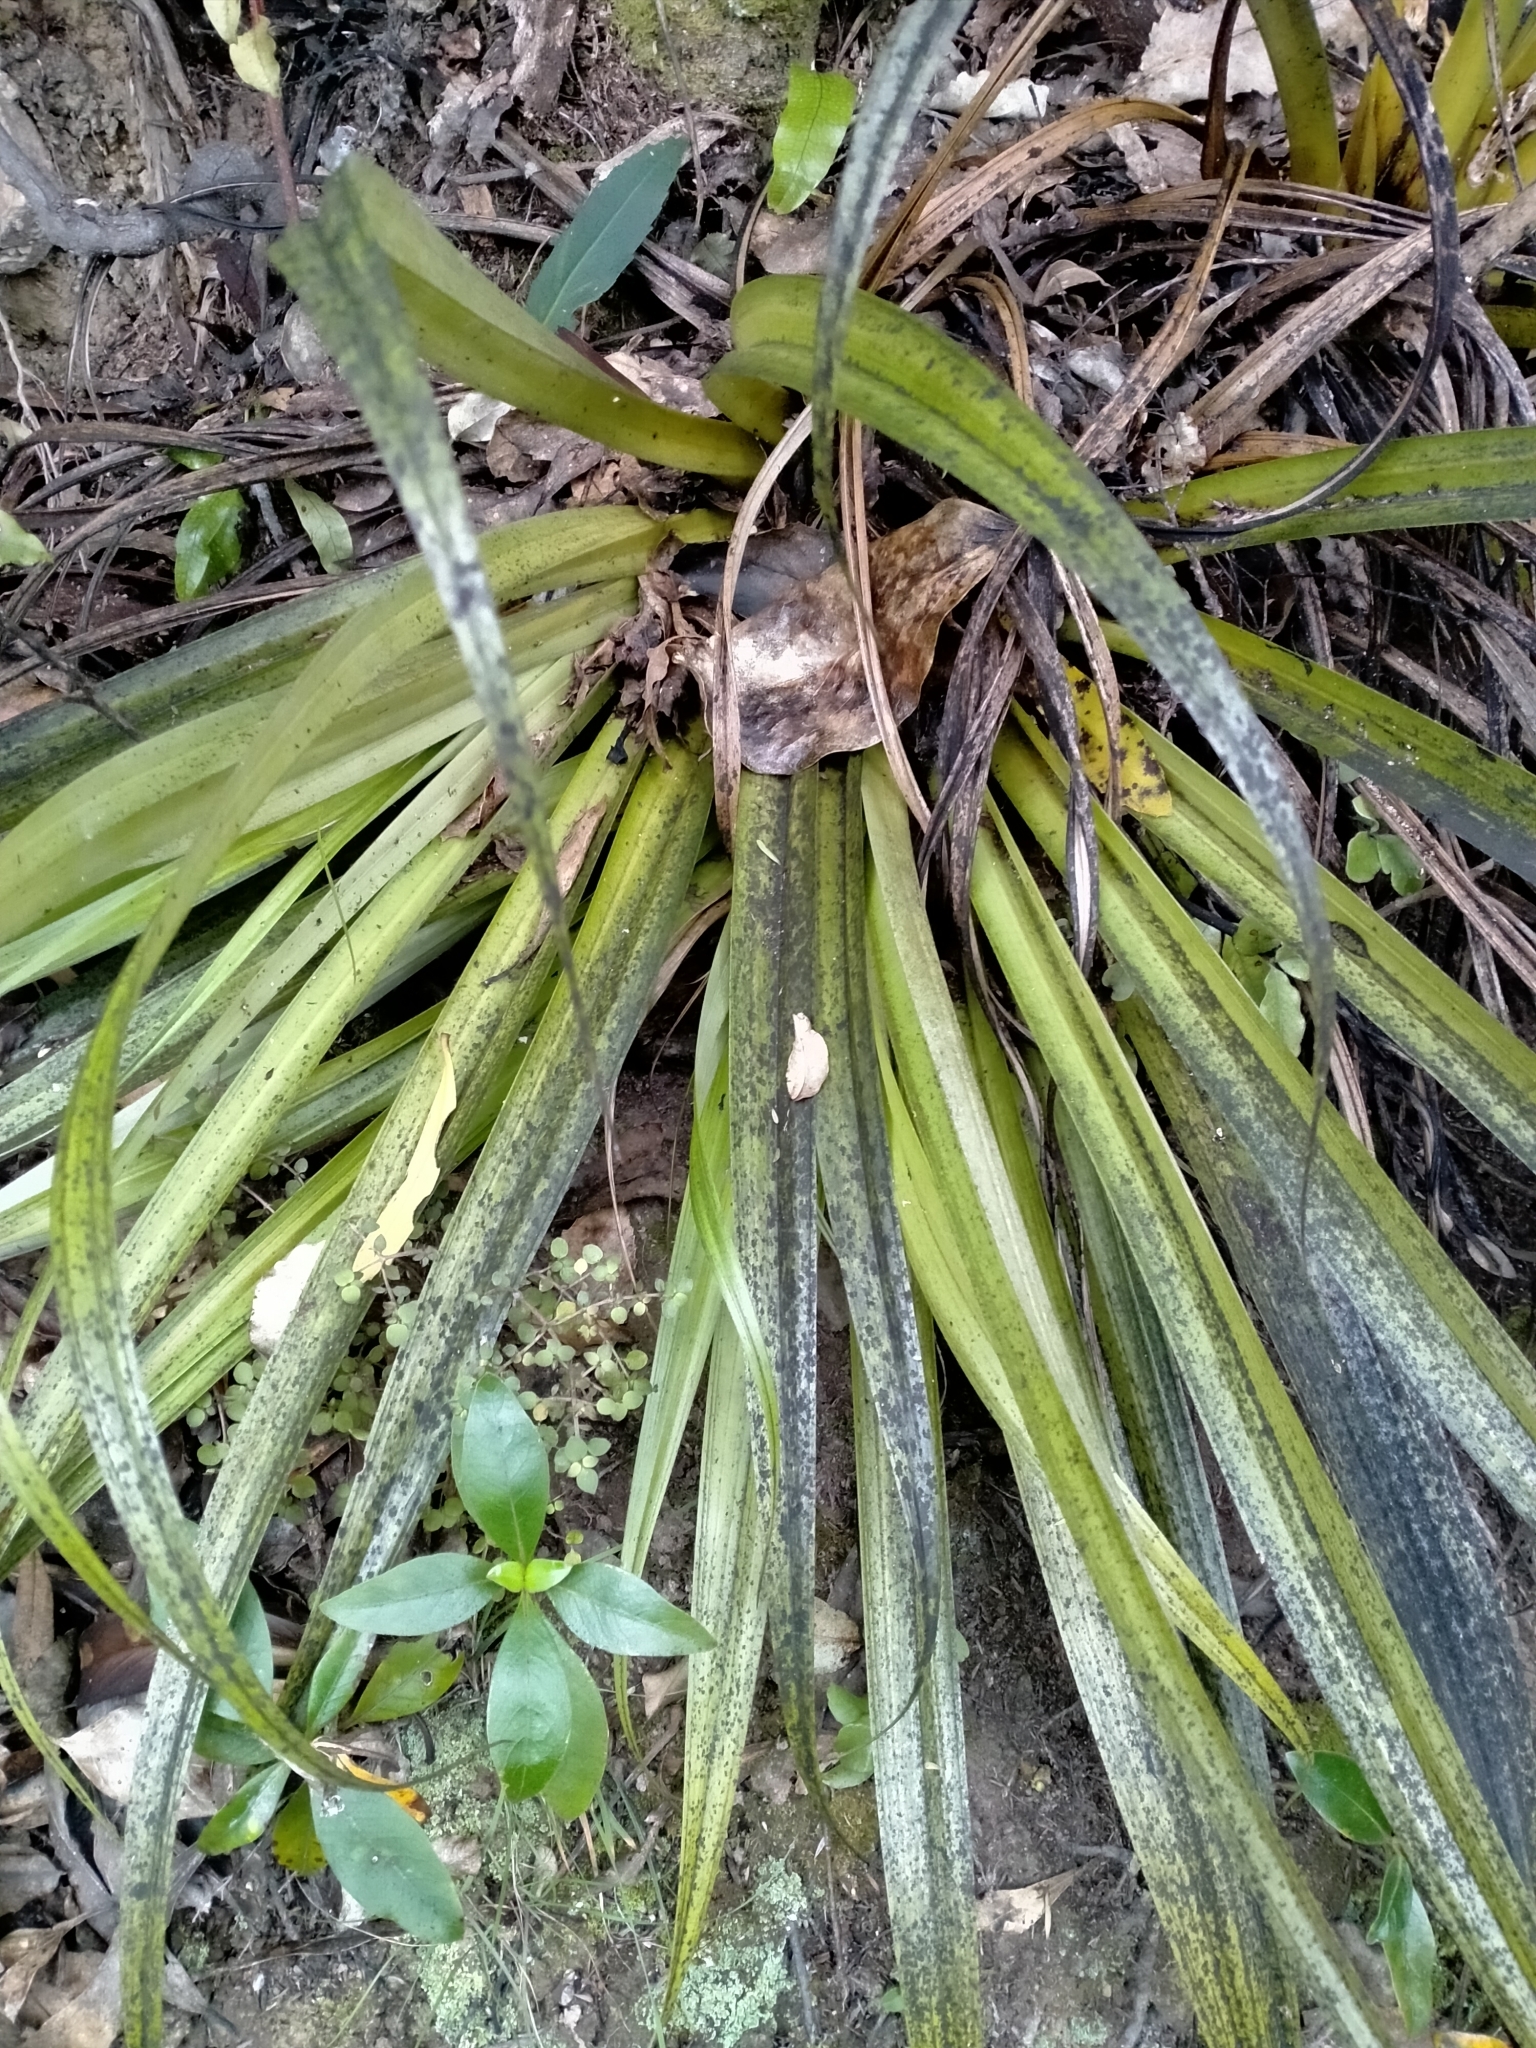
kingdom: Plantae
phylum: Tracheophyta
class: Liliopsida
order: Asparagales
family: Asteliaceae
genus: Astelia
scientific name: Astelia hastata
